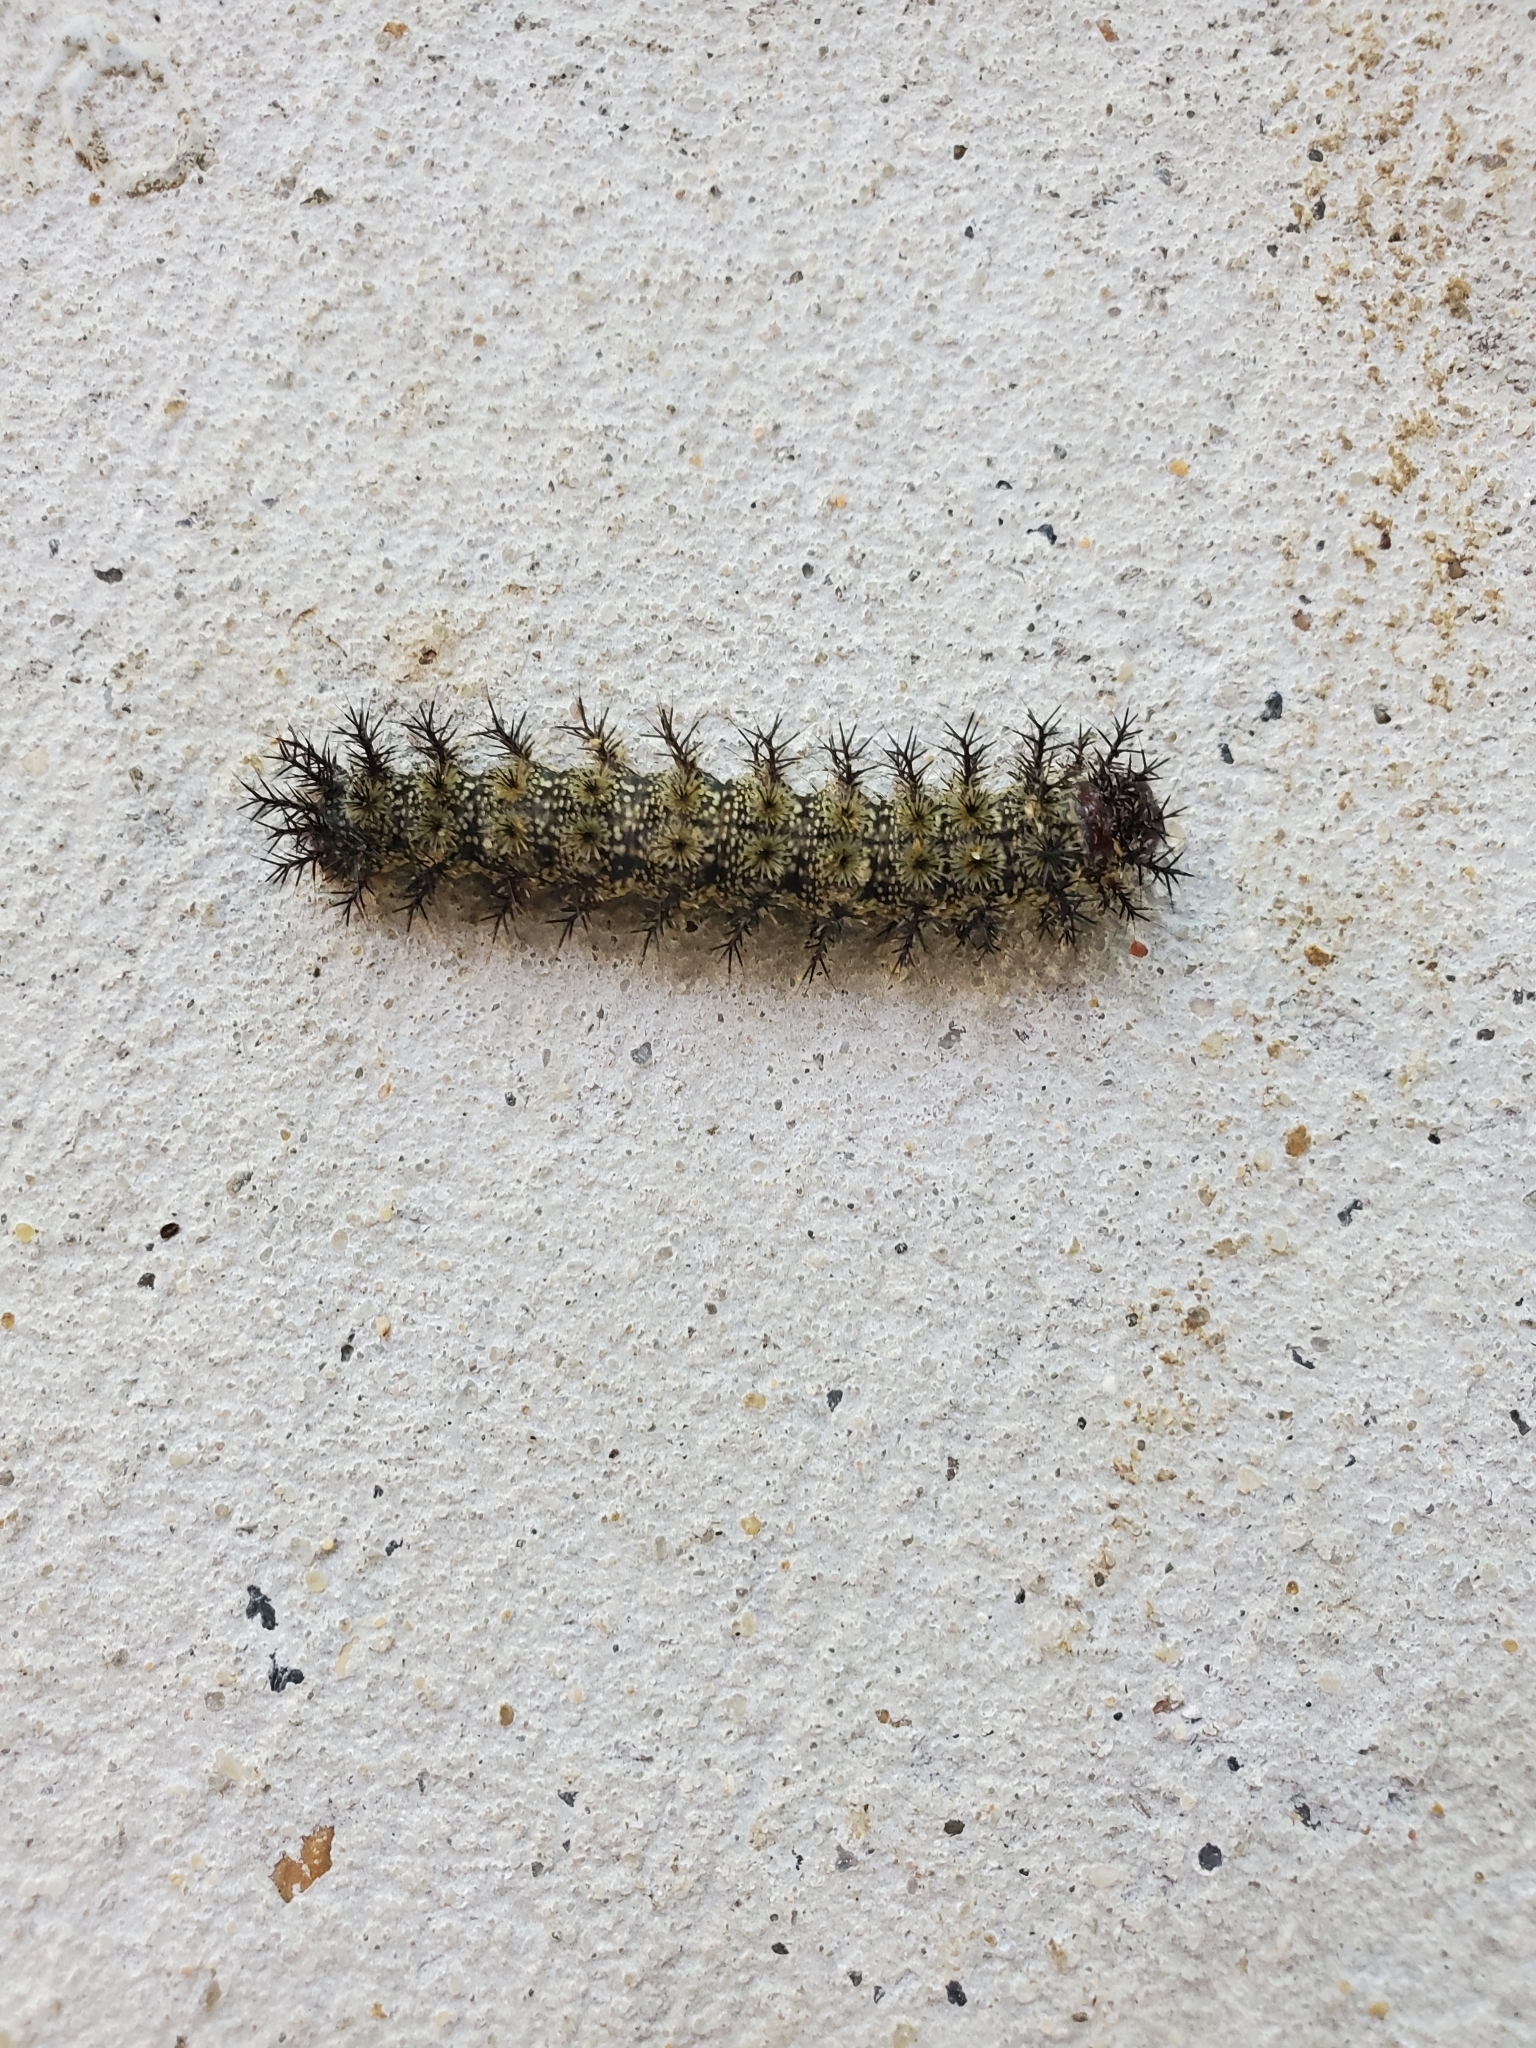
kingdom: Animalia
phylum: Arthropoda
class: Insecta
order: Lepidoptera
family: Saturniidae
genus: Hemileuca
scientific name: Hemileuca maia
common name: Eastern buckmoth
